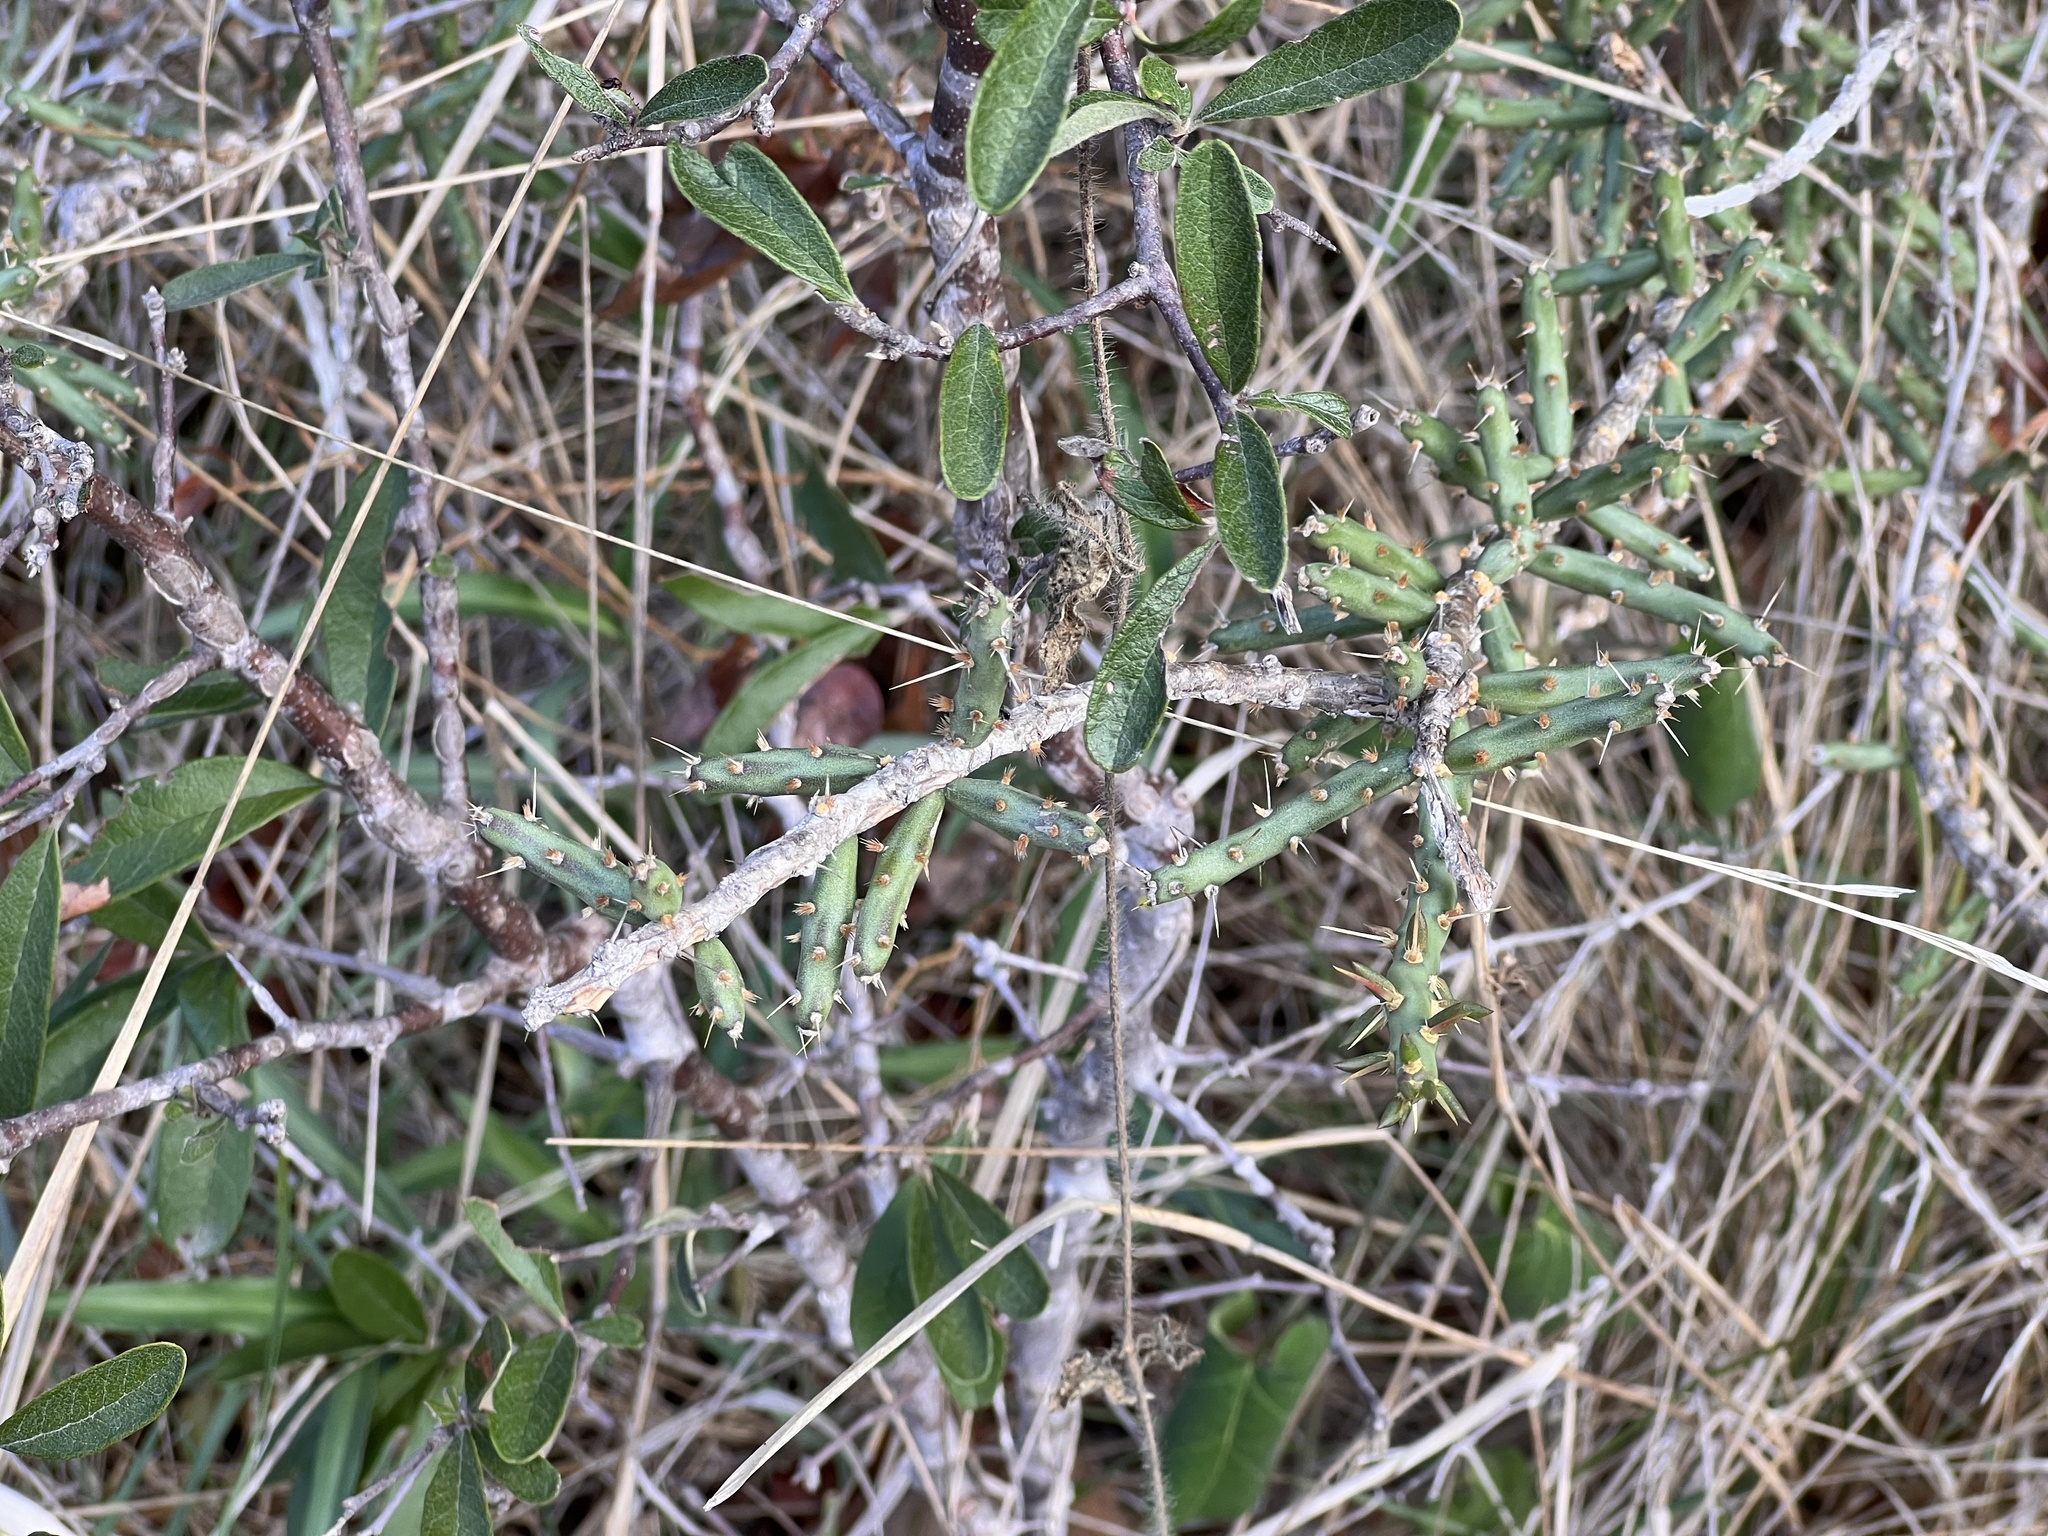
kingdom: Plantae
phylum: Tracheophyta
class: Magnoliopsida
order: Caryophyllales
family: Cactaceae
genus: Cylindropuntia
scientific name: Cylindropuntia leptocaulis
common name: Christmas cactus
